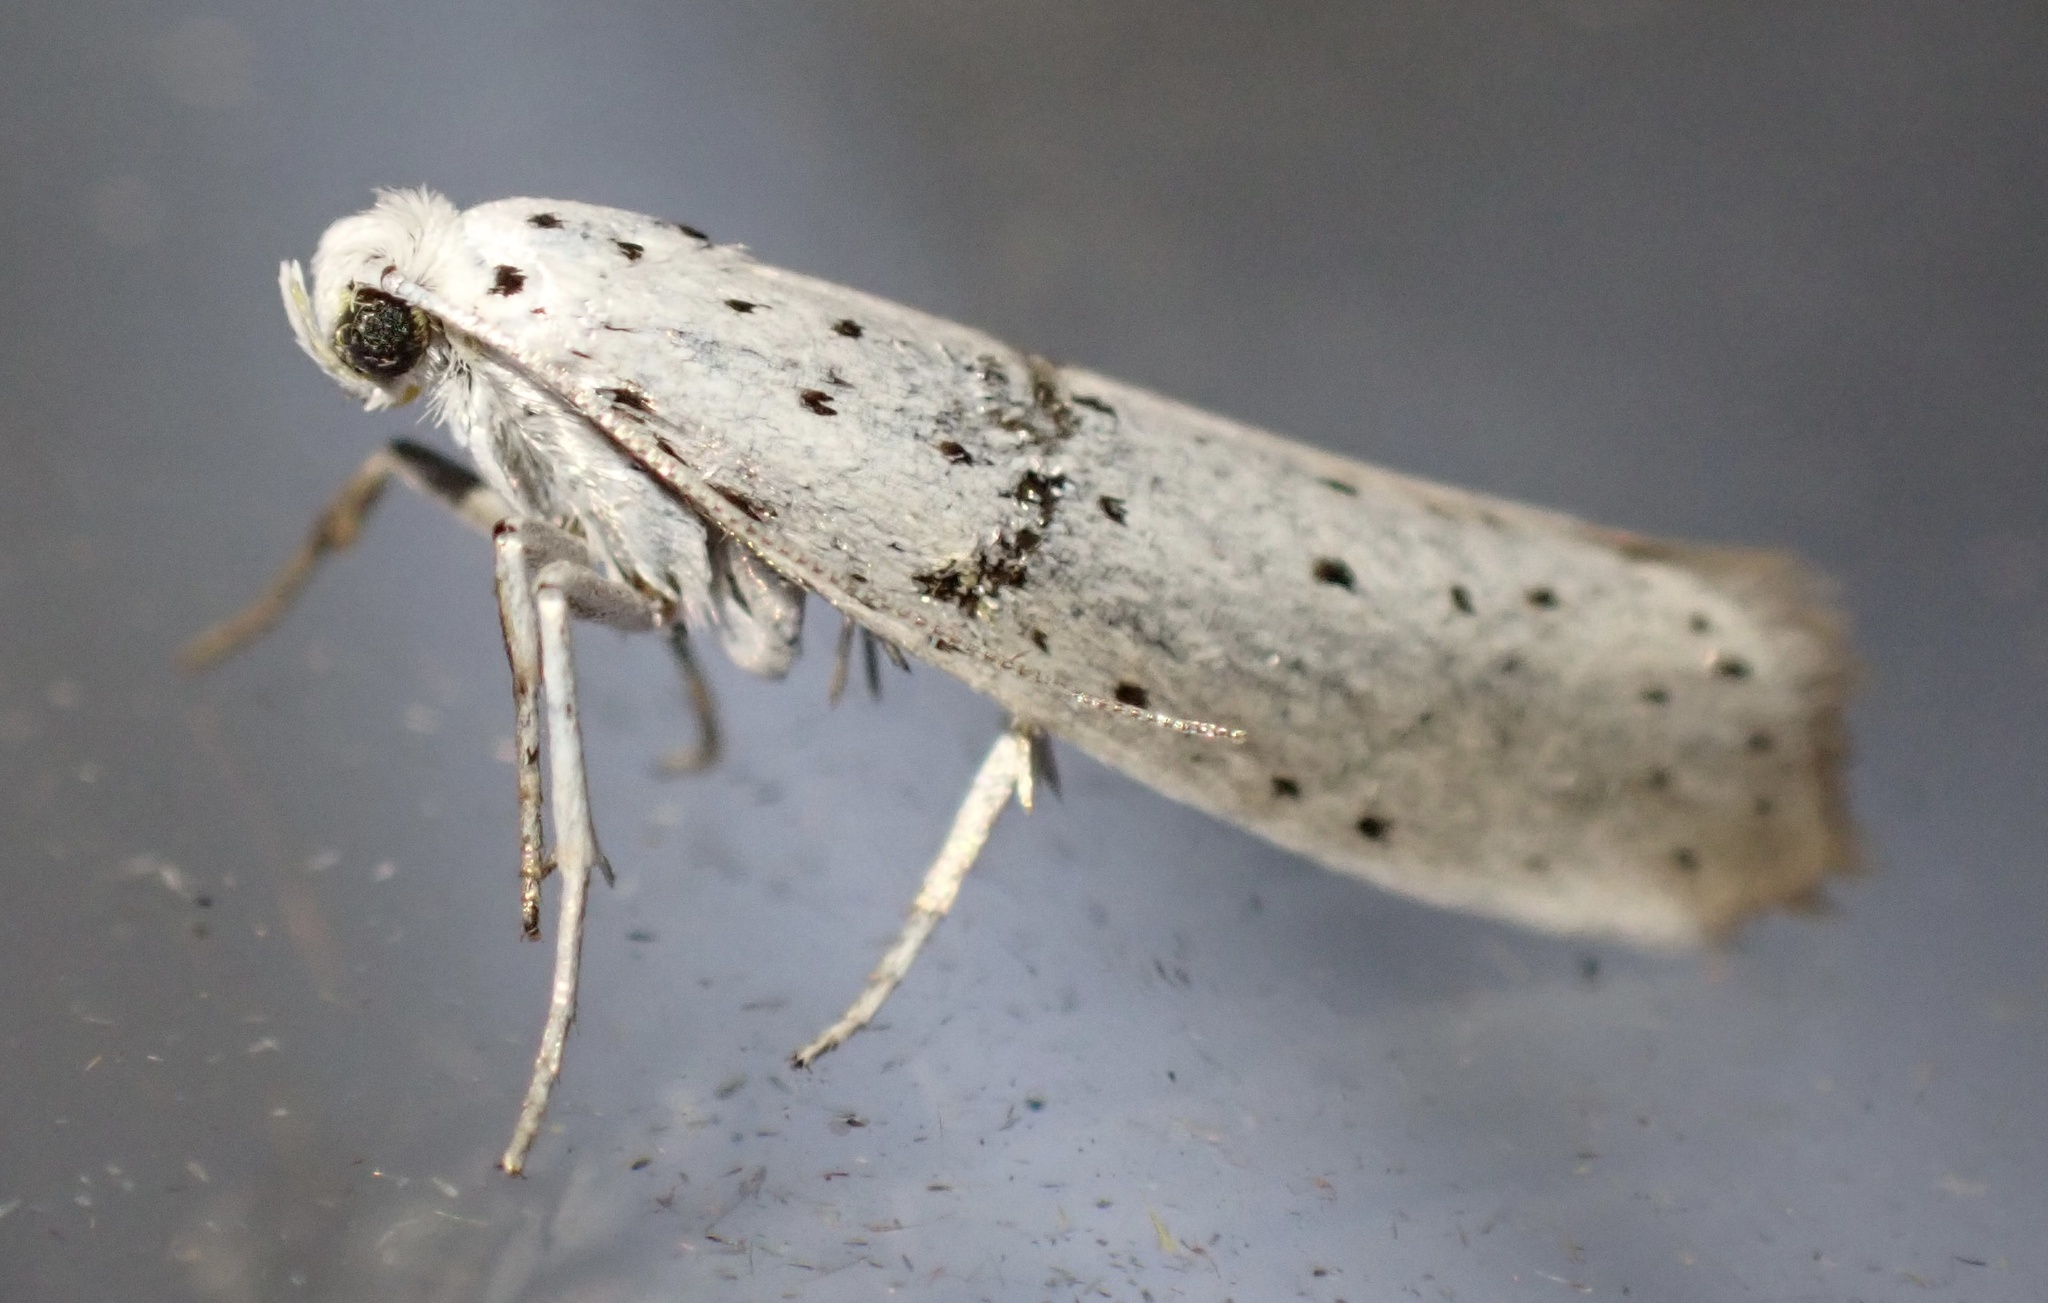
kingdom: Animalia
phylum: Arthropoda
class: Insecta
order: Lepidoptera
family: Yponomeutidae
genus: Yponomeuta
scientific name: Yponomeuta
